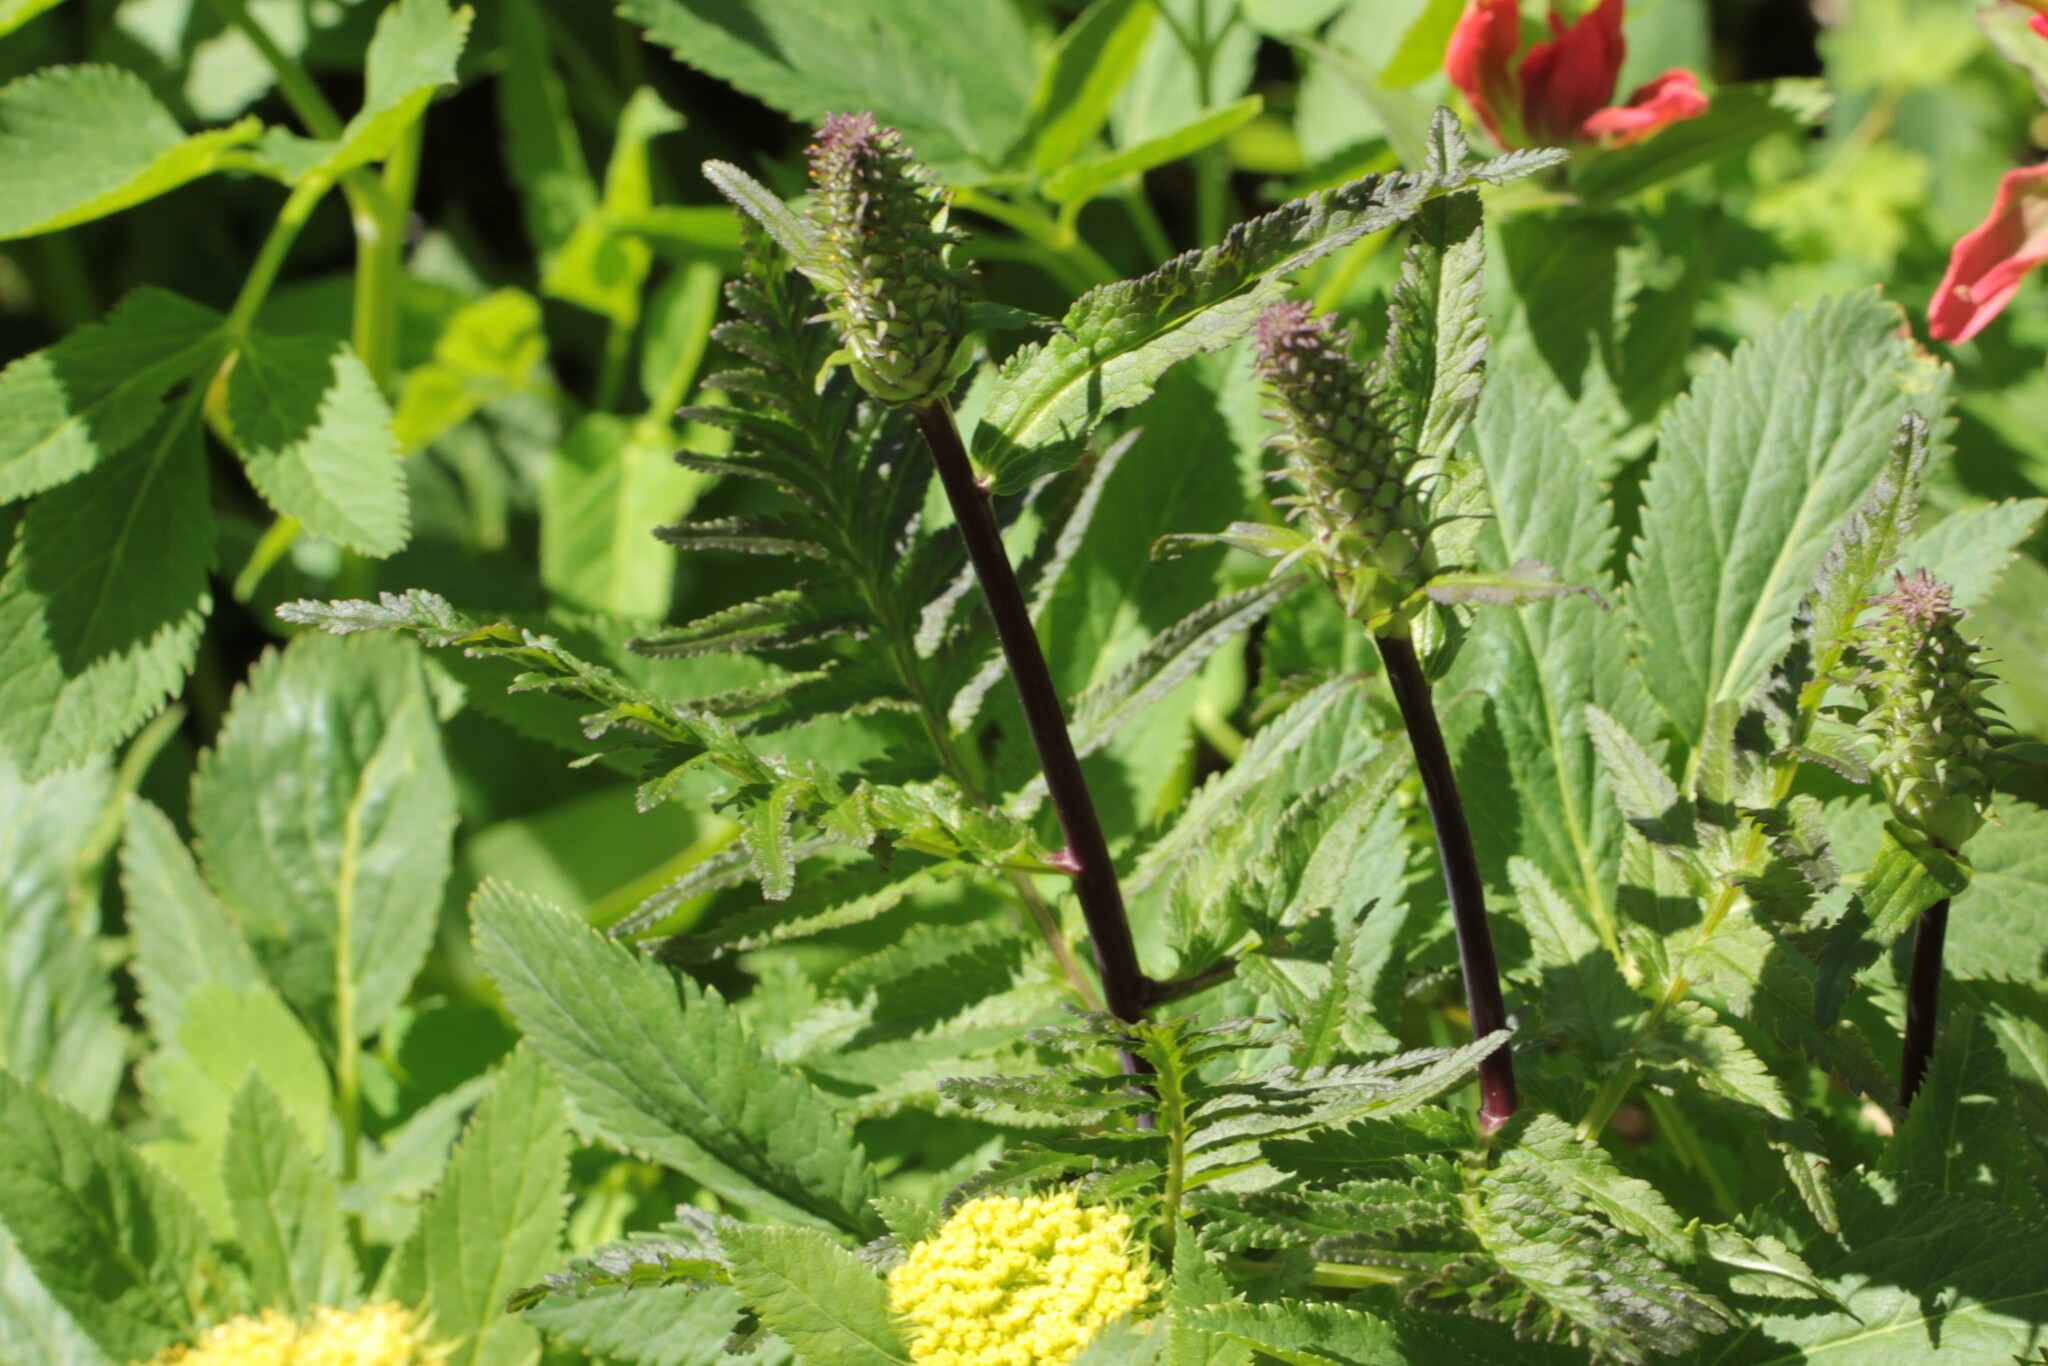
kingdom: Plantae
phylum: Tracheophyta
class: Magnoliopsida
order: Lamiales
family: Orobanchaceae
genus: Pedicularis
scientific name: Pedicularis bracteosa
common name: Bracted lousewort
